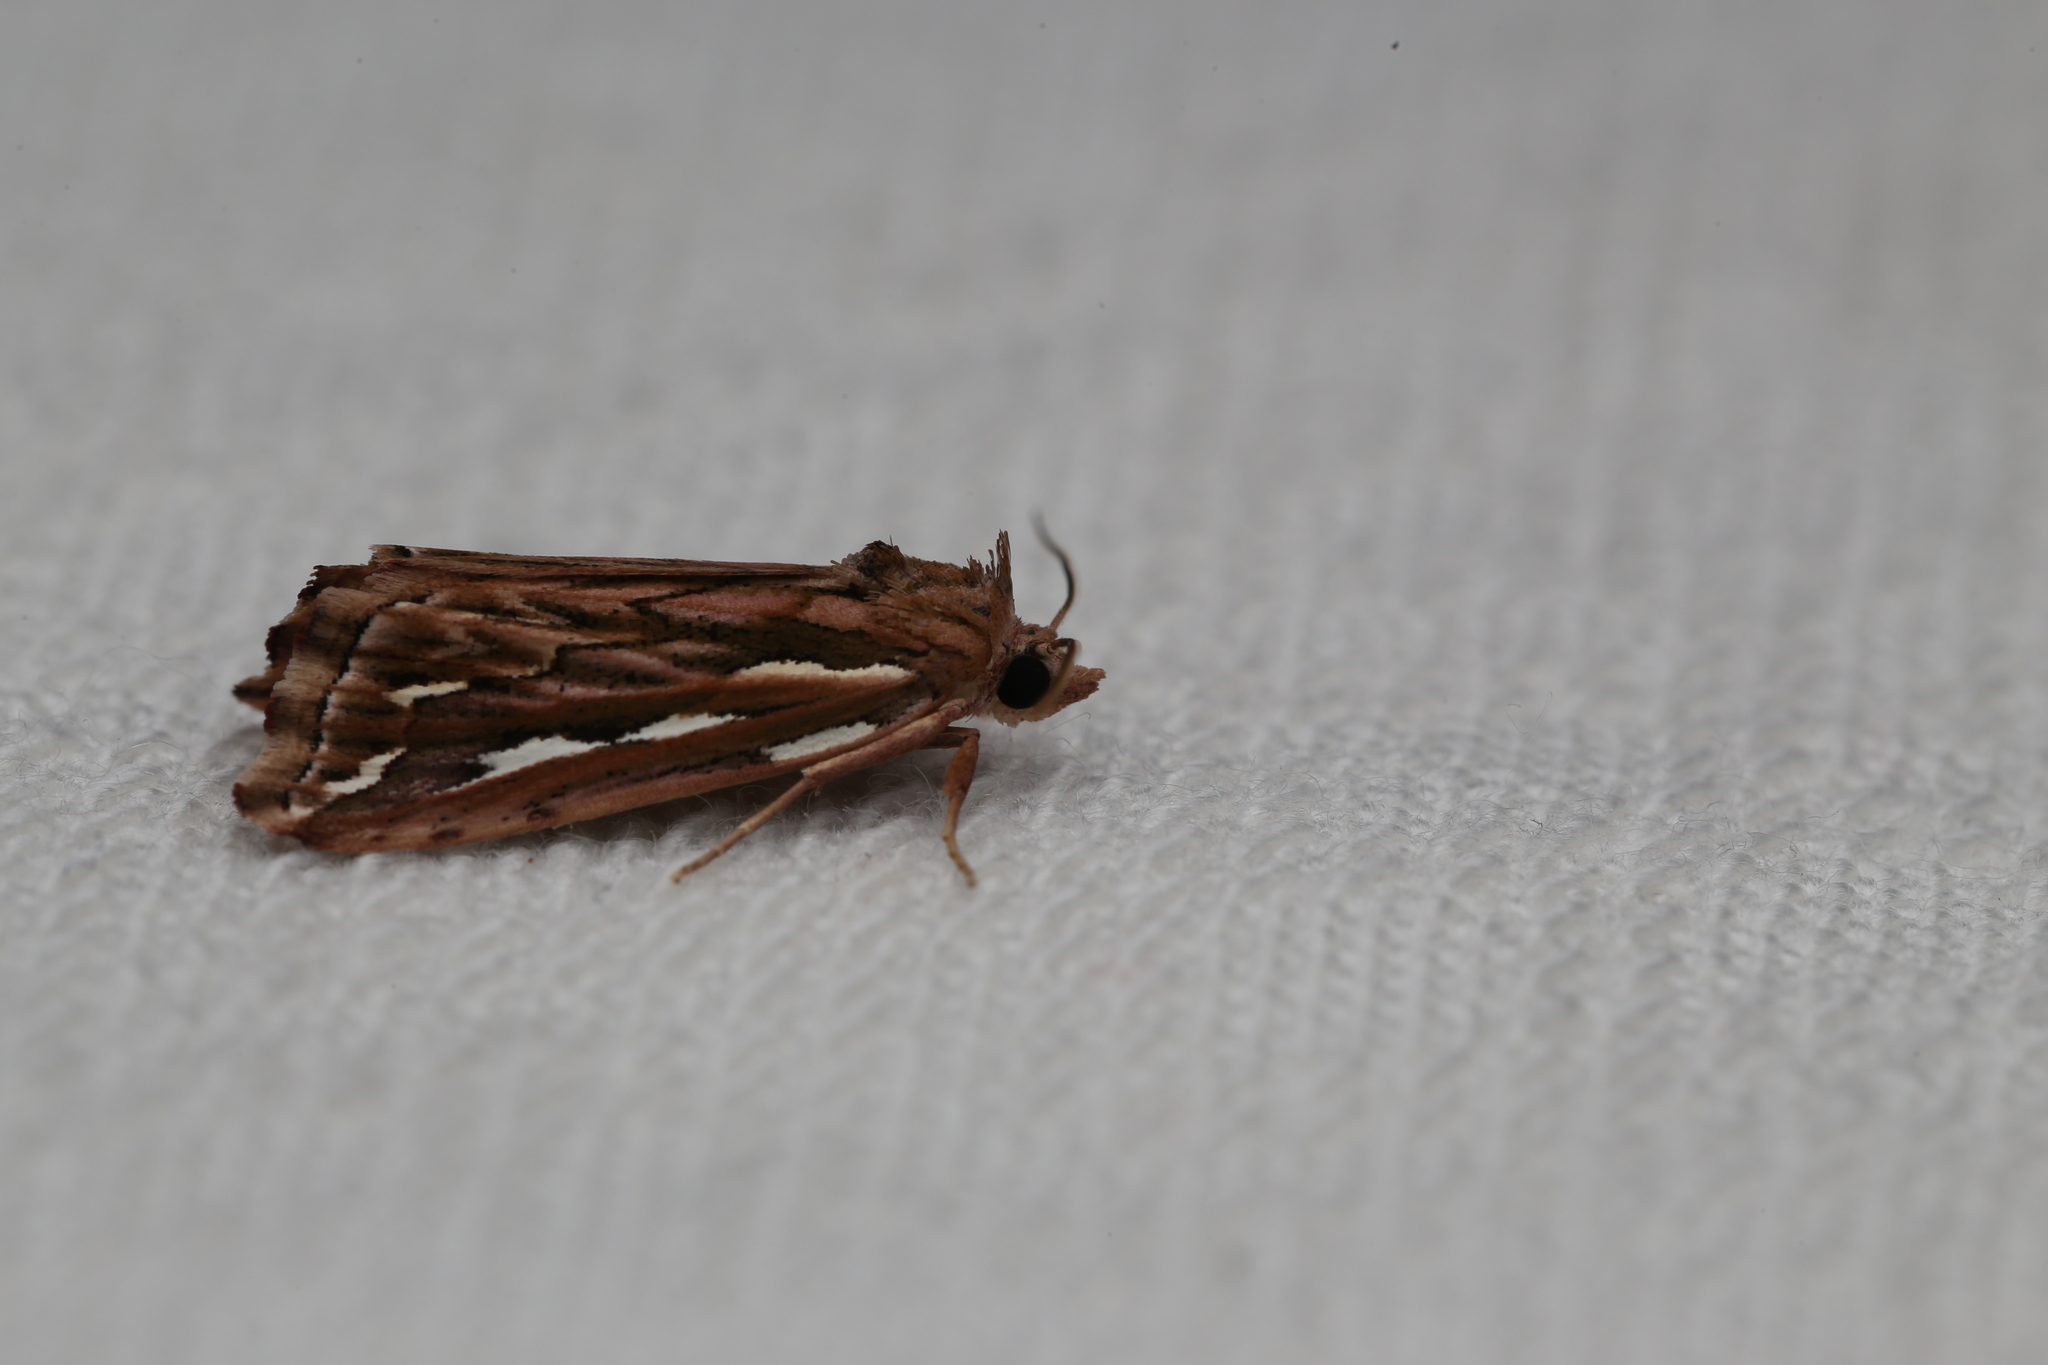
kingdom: Animalia
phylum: Arthropoda
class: Insecta
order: Lepidoptera
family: Erebidae
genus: Meyrickella
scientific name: Meyrickella torquesauria
